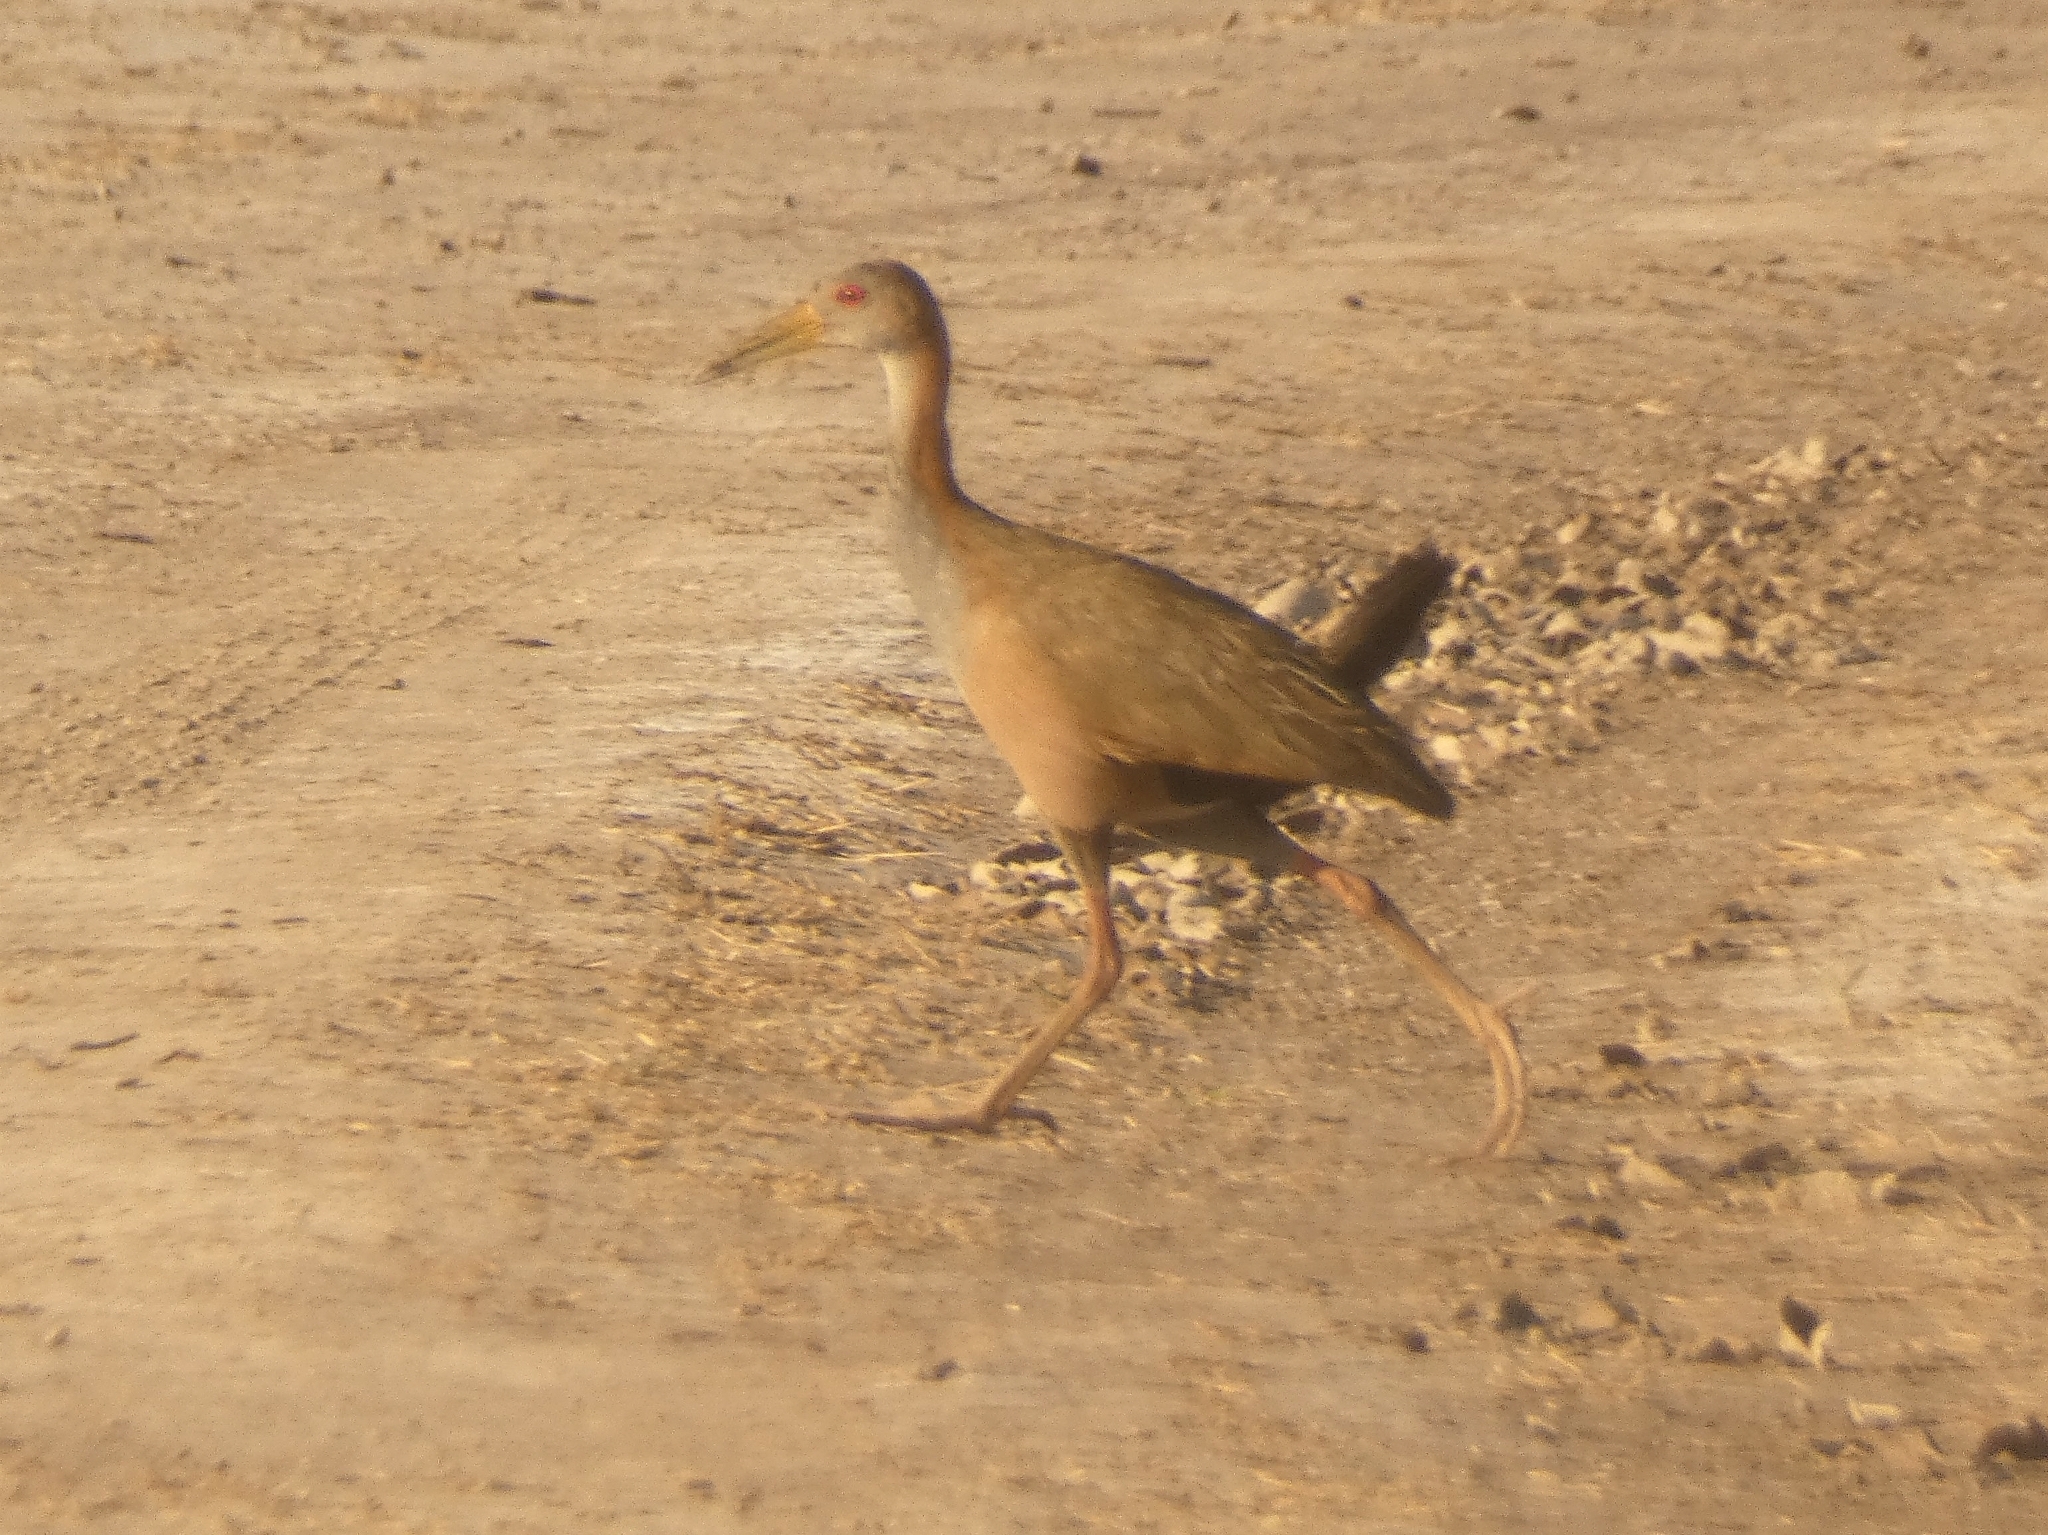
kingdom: Animalia
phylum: Chordata
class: Aves
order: Gruiformes
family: Rallidae
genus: Aramides
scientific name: Aramides ypecaha
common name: Giant wood rail
